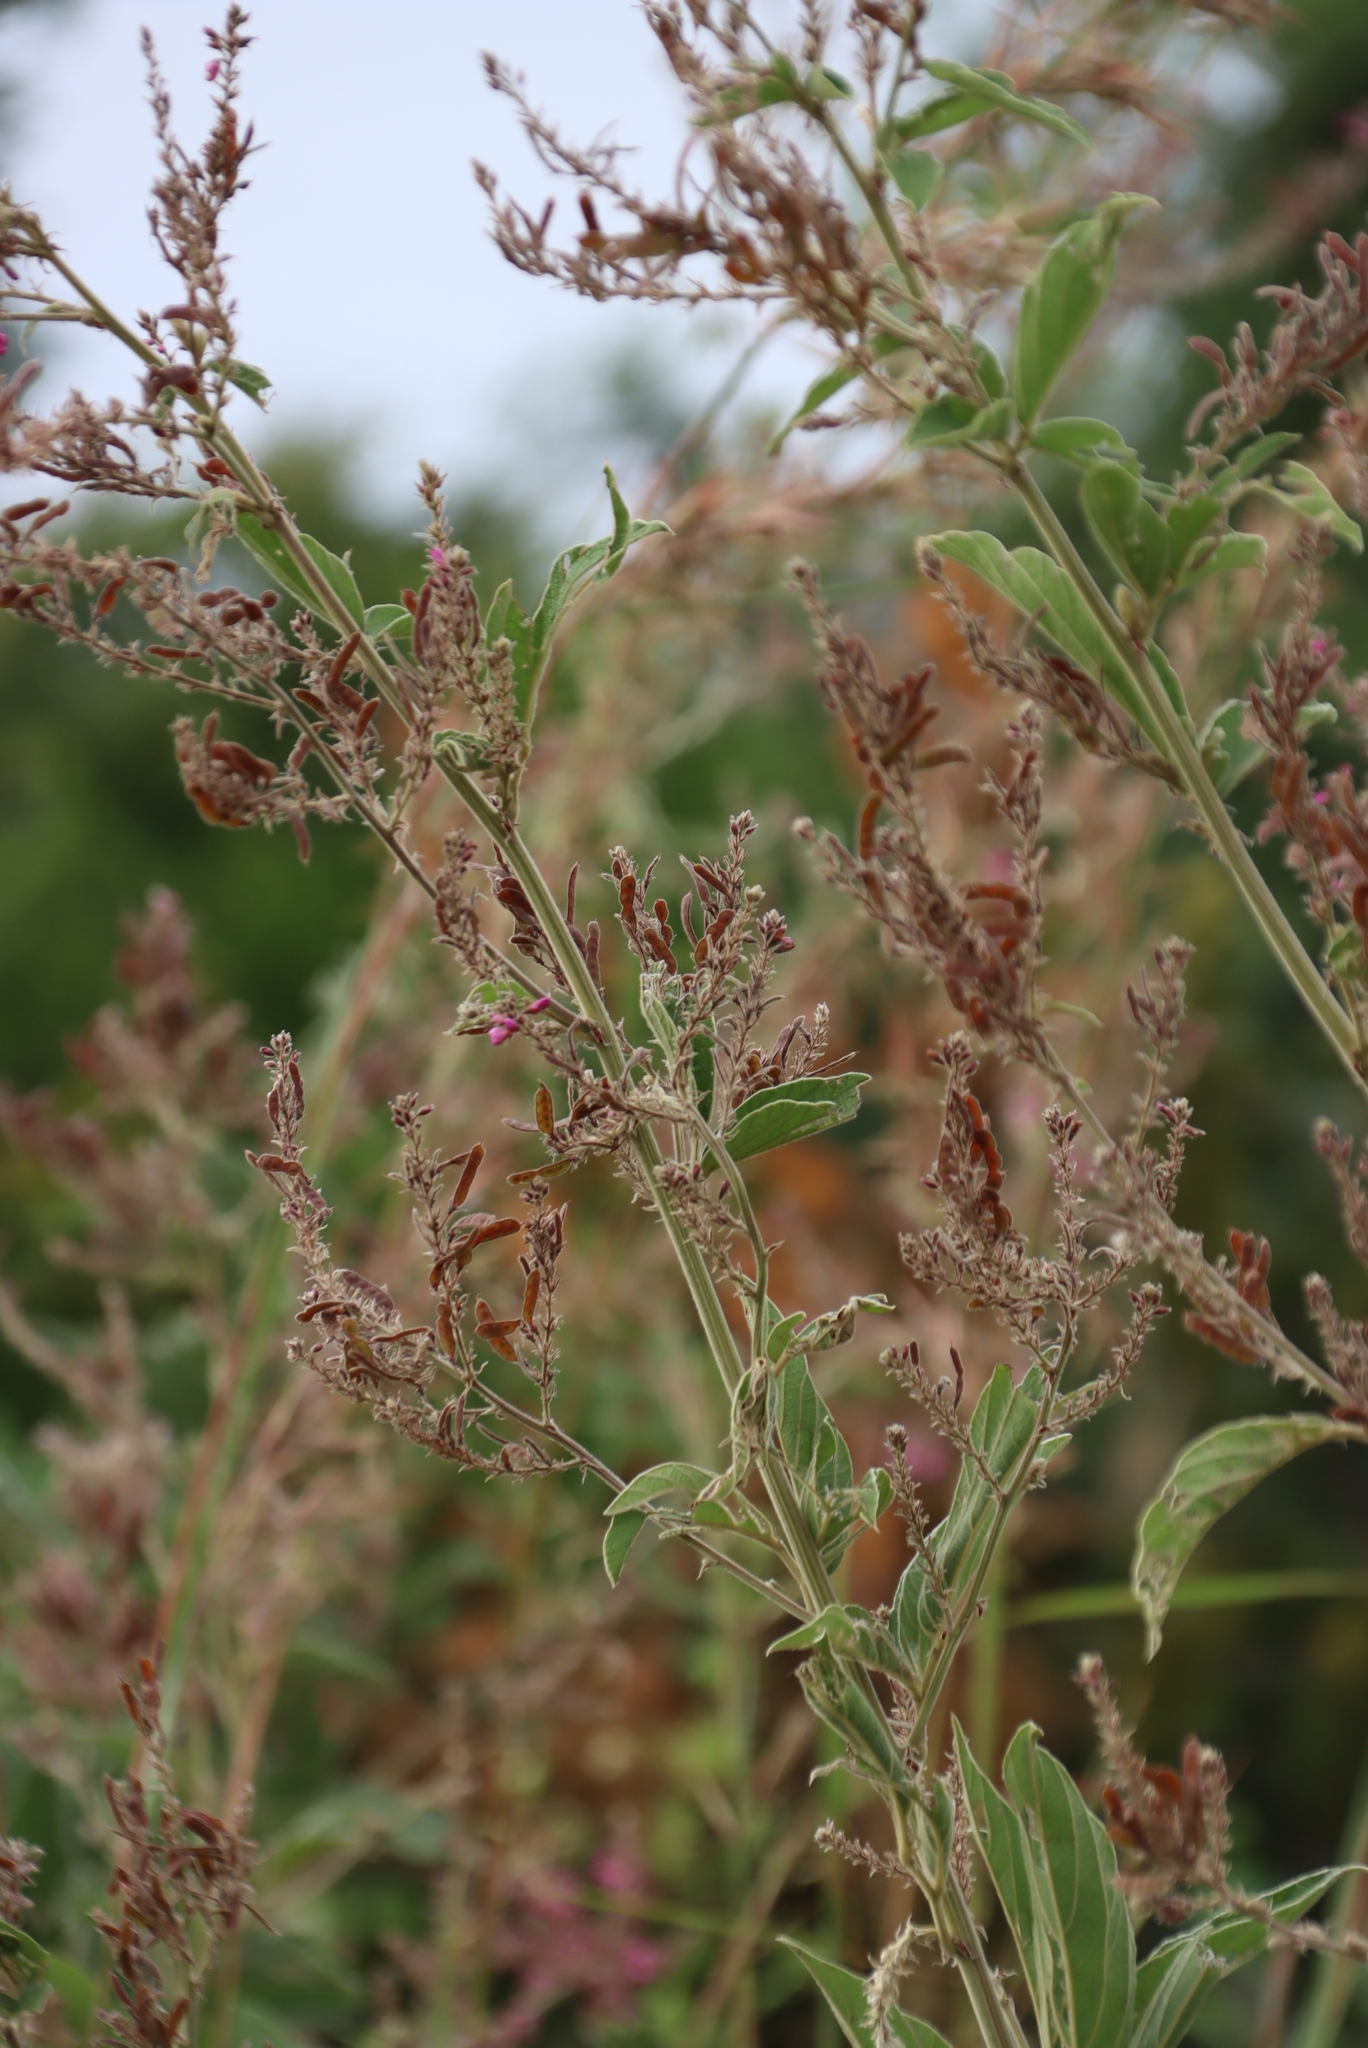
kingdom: Plantae
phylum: Tracheophyta
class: Magnoliopsida
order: Fabales
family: Fabaceae
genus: Pseudarthria
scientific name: Pseudarthria hookeri
